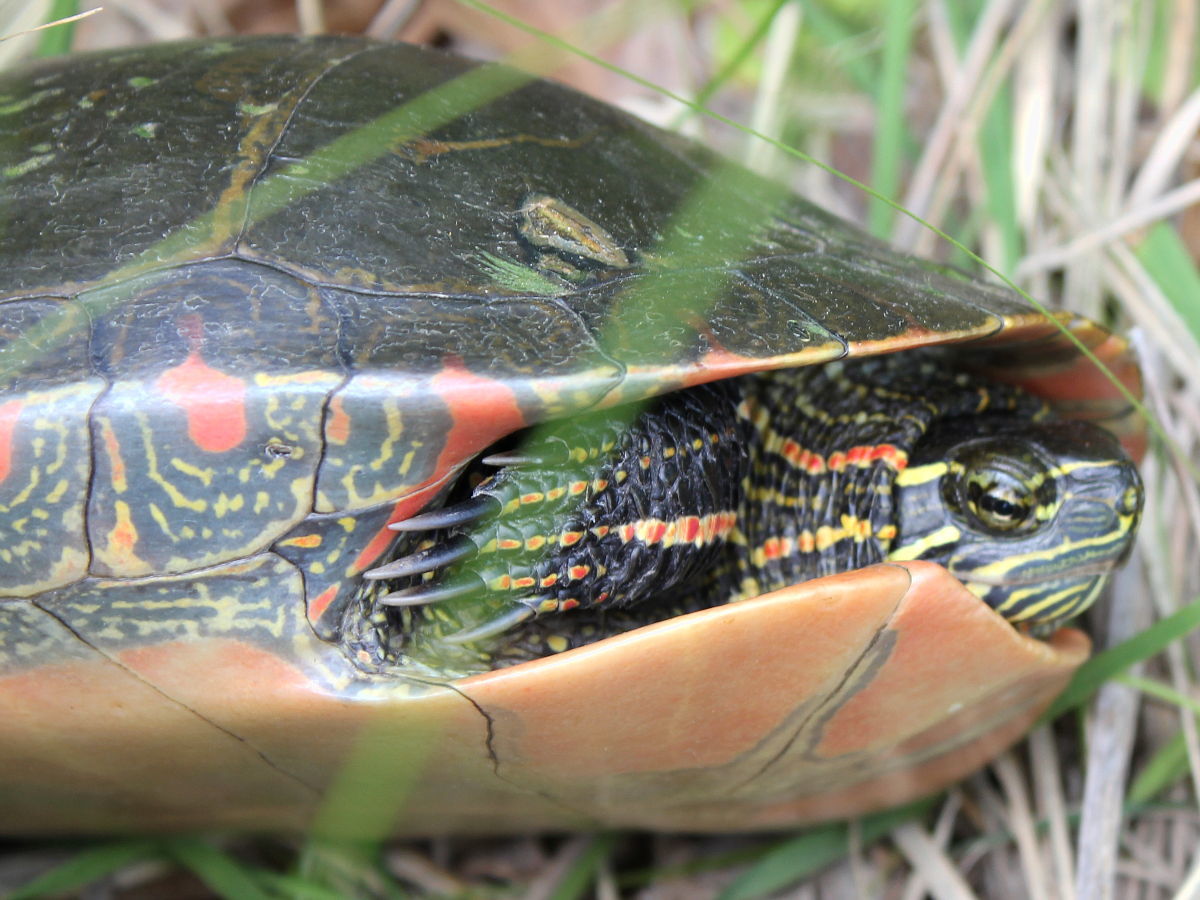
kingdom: Animalia
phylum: Chordata
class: Testudines
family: Emydidae
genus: Chrysemys
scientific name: Chrysemys picta
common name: Painted turtle
